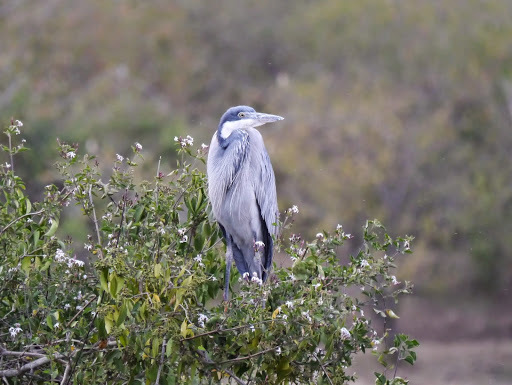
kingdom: Animalia
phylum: Chordata
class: Aves
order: Pelecaniformes
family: Ardeidae
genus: Ardea
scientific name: Ardea melanocephala
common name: Black-headed heron
